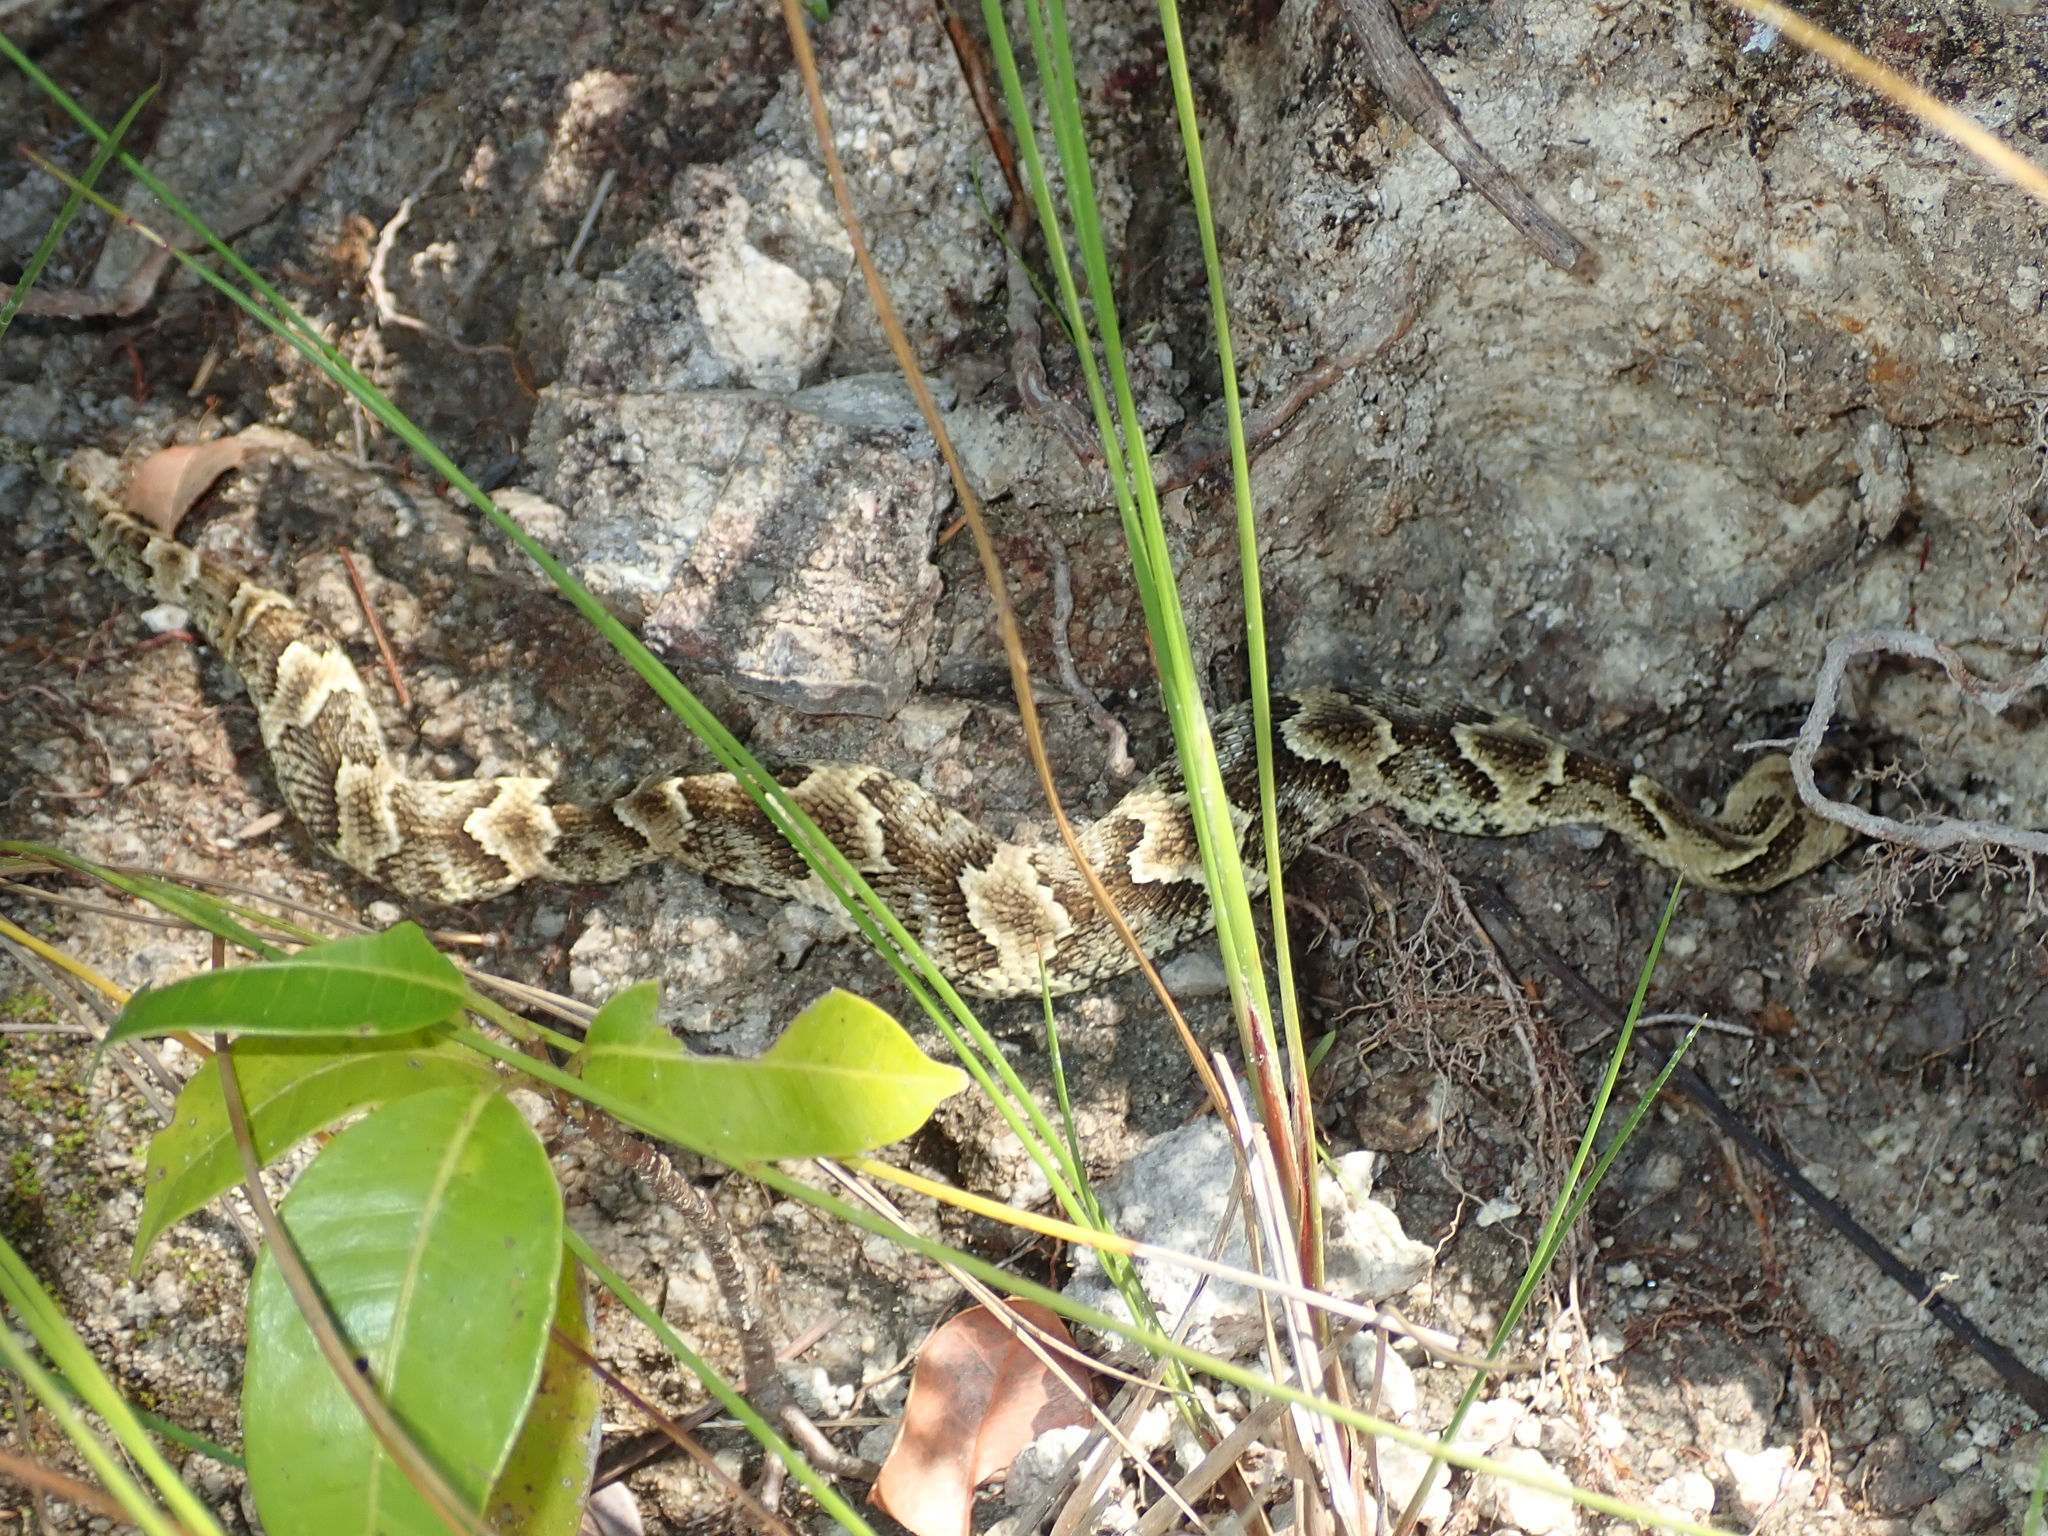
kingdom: Animalia
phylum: Chordata
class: Squamata
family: Colubridae
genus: Xenodon
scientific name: Xenodon merremii
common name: Wagler's snake
